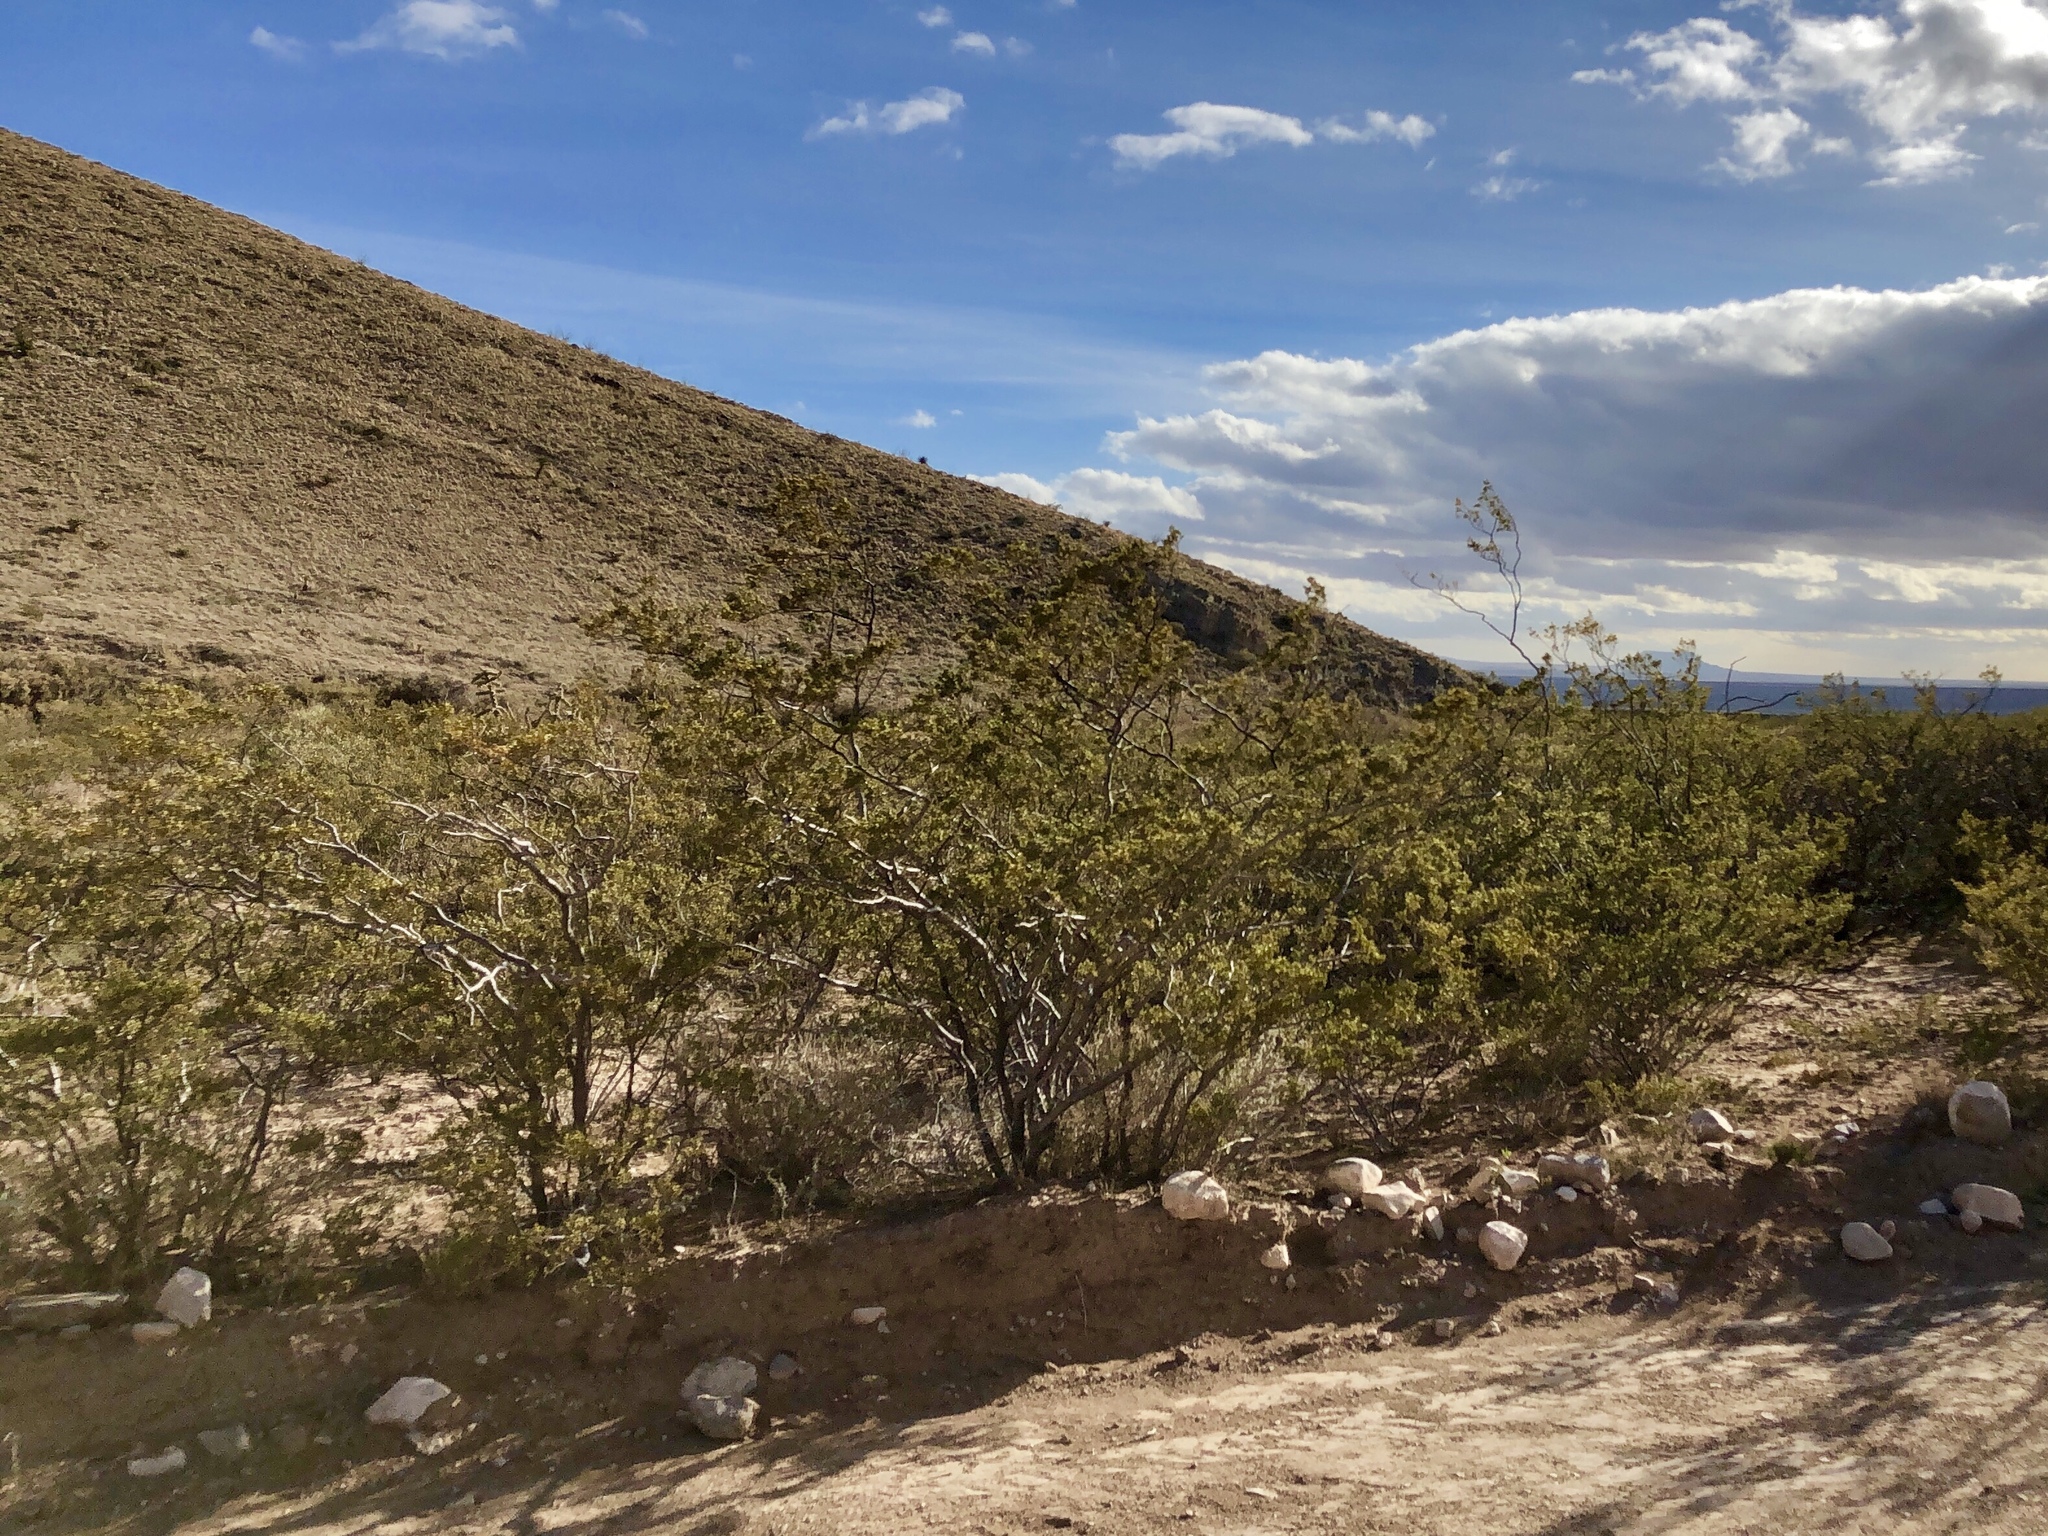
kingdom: Plantae
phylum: Tracheophyta
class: Magnoliopsida
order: Zygophyllales
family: Zygophyllaceae
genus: Larrea
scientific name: Larrea tridentata
